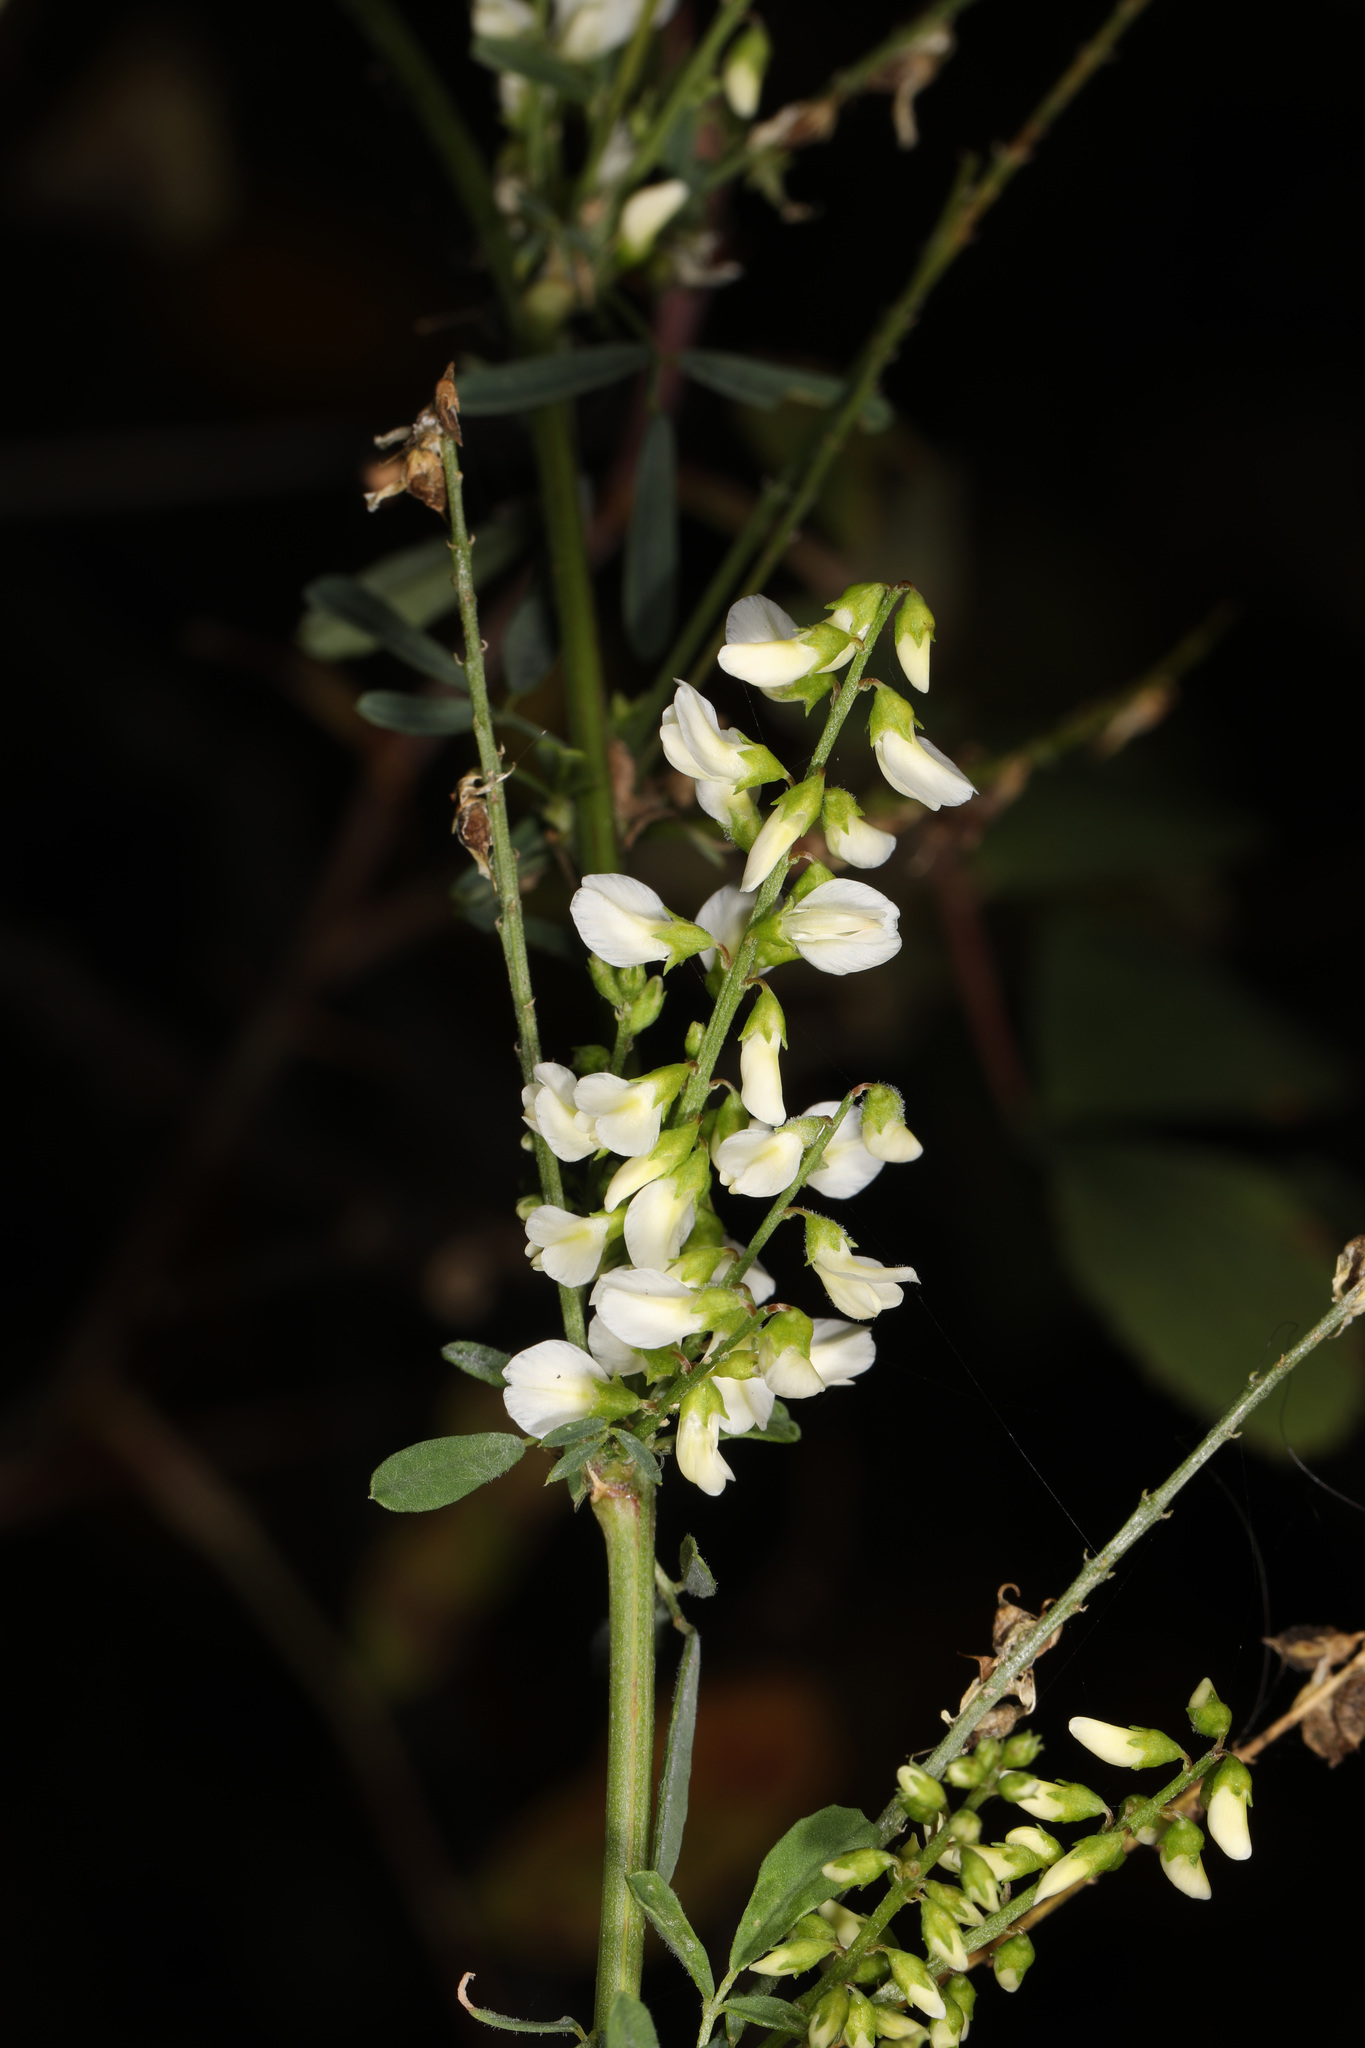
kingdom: Plantae
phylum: Tracheophyta
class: Magnoliopsida
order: Fabales
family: Fabaceae
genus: Melilotus
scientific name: Melilotus albus
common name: White melilot
